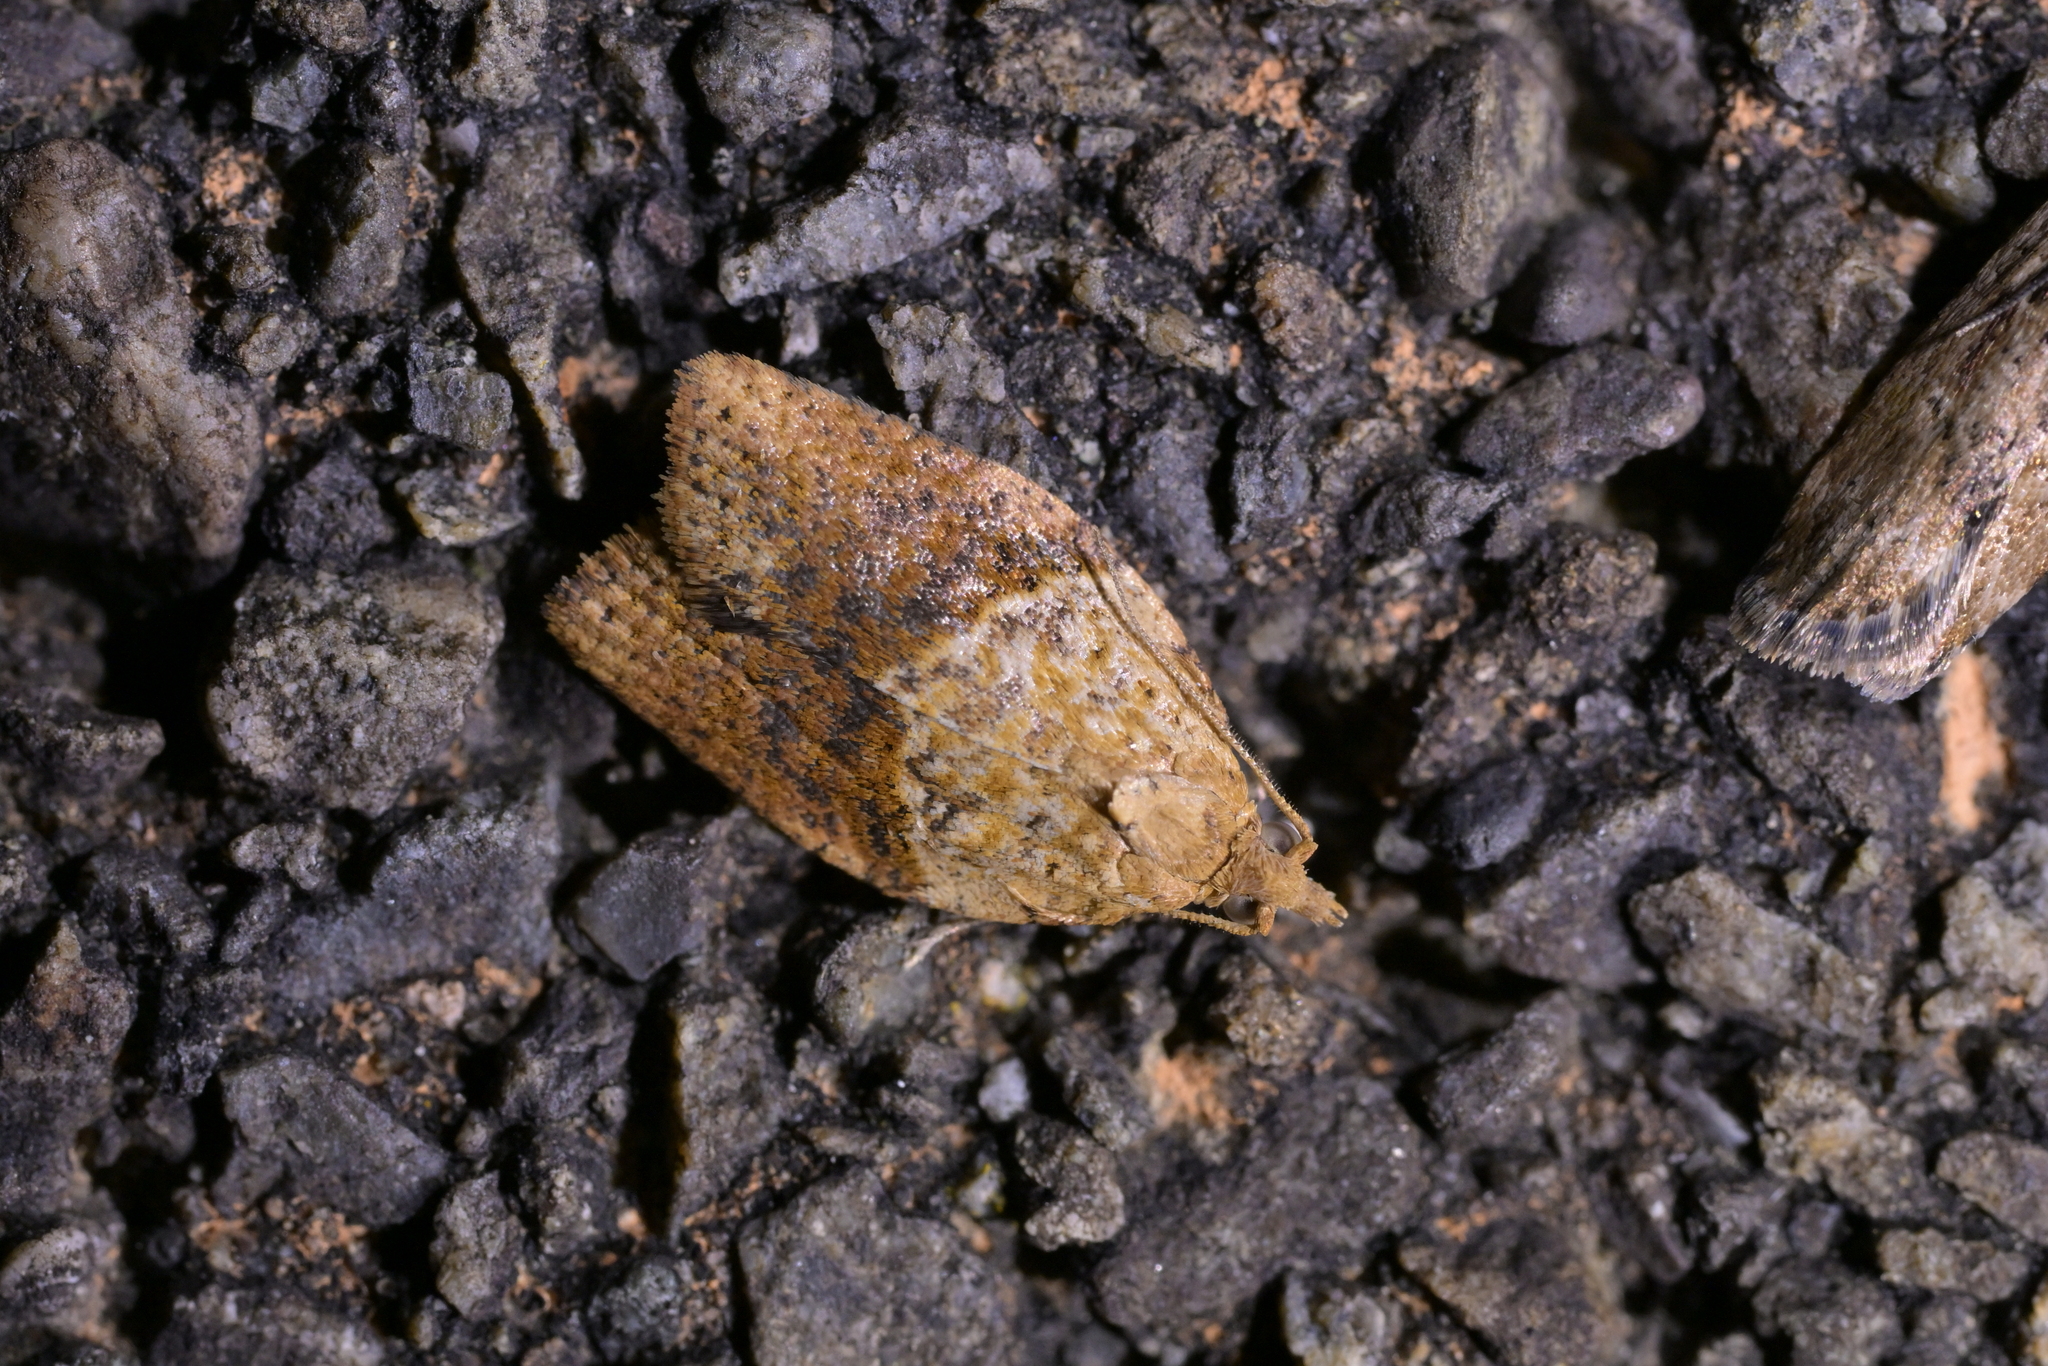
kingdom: Animalia
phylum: Arthropoda
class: Insecta
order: Lepidoptera
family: Tortricidae
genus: Epiphyas
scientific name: Epiphyas postvittana
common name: Light brown apple moth
